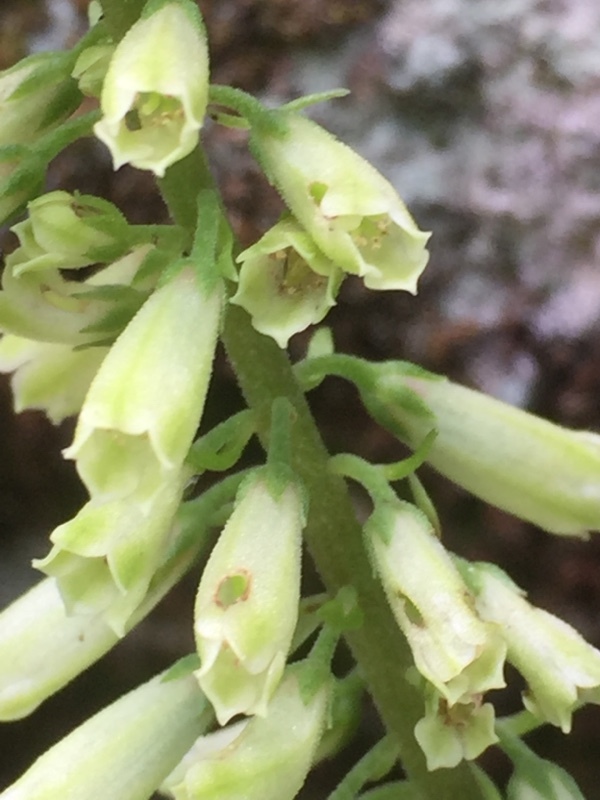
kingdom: Plantae
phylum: Tracheophyta
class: Magnoliopsida
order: Saxifragales
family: Crassulaceae
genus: Umbilicus
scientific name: Umbilicus rupestris
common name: Navelwort
